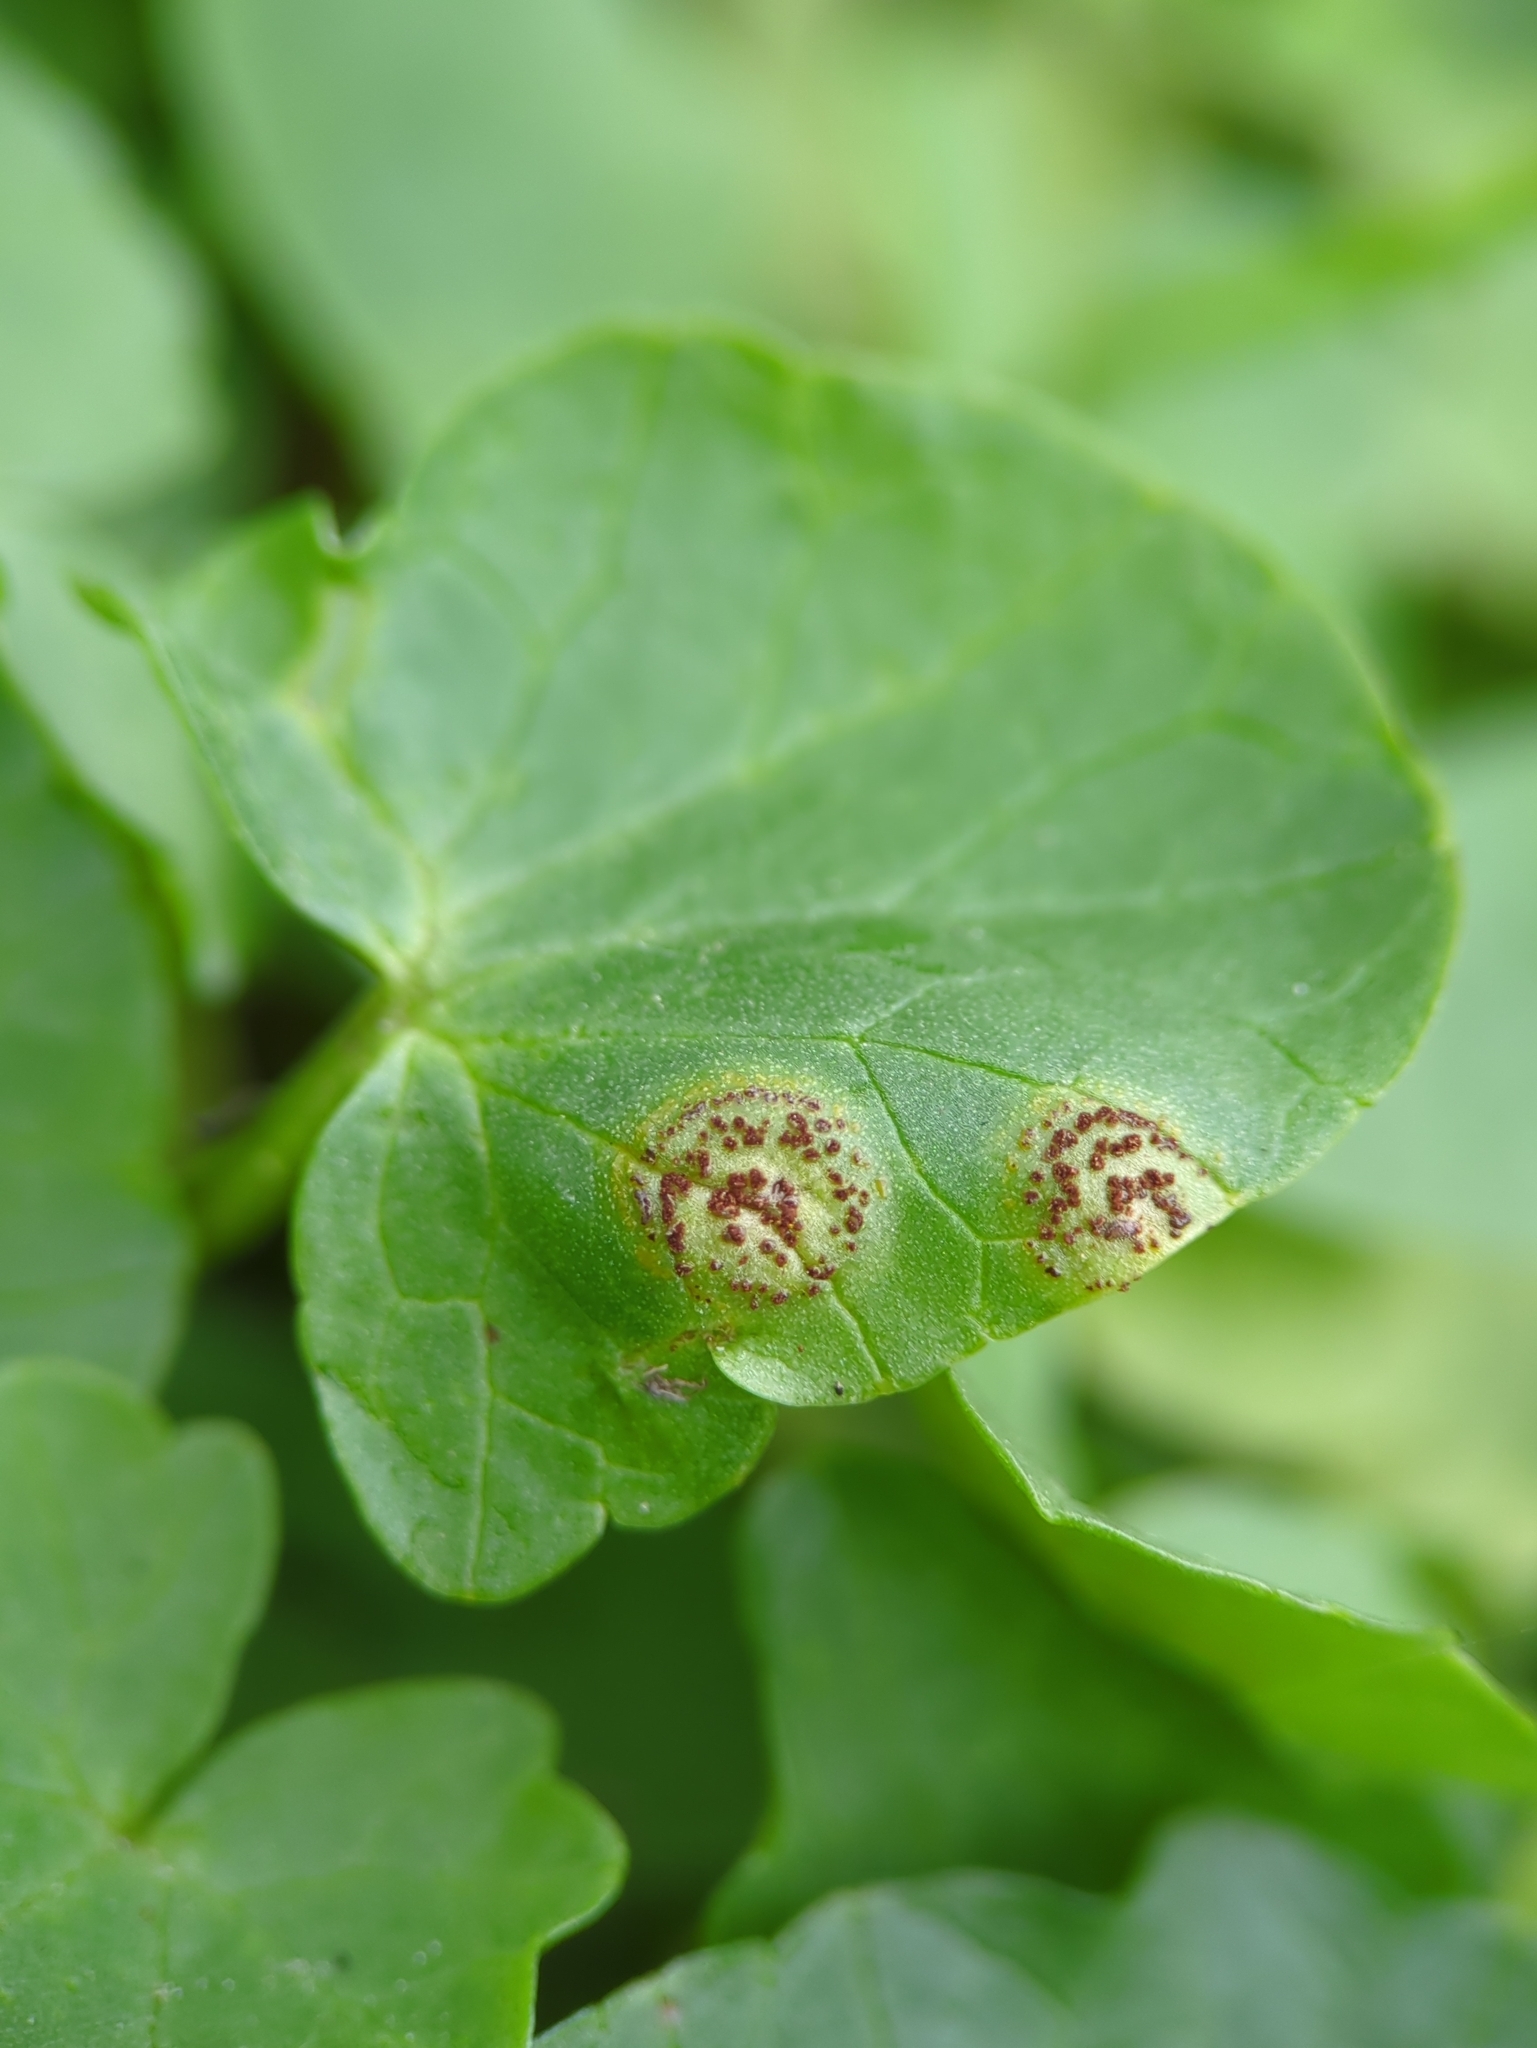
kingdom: Fungi
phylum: Basidiomycota
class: Pucciniomycetes
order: Pucciniales
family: Pucciniaceae
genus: Uromyces
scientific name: Uromyces ficariae
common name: Bitter chocolate rust
